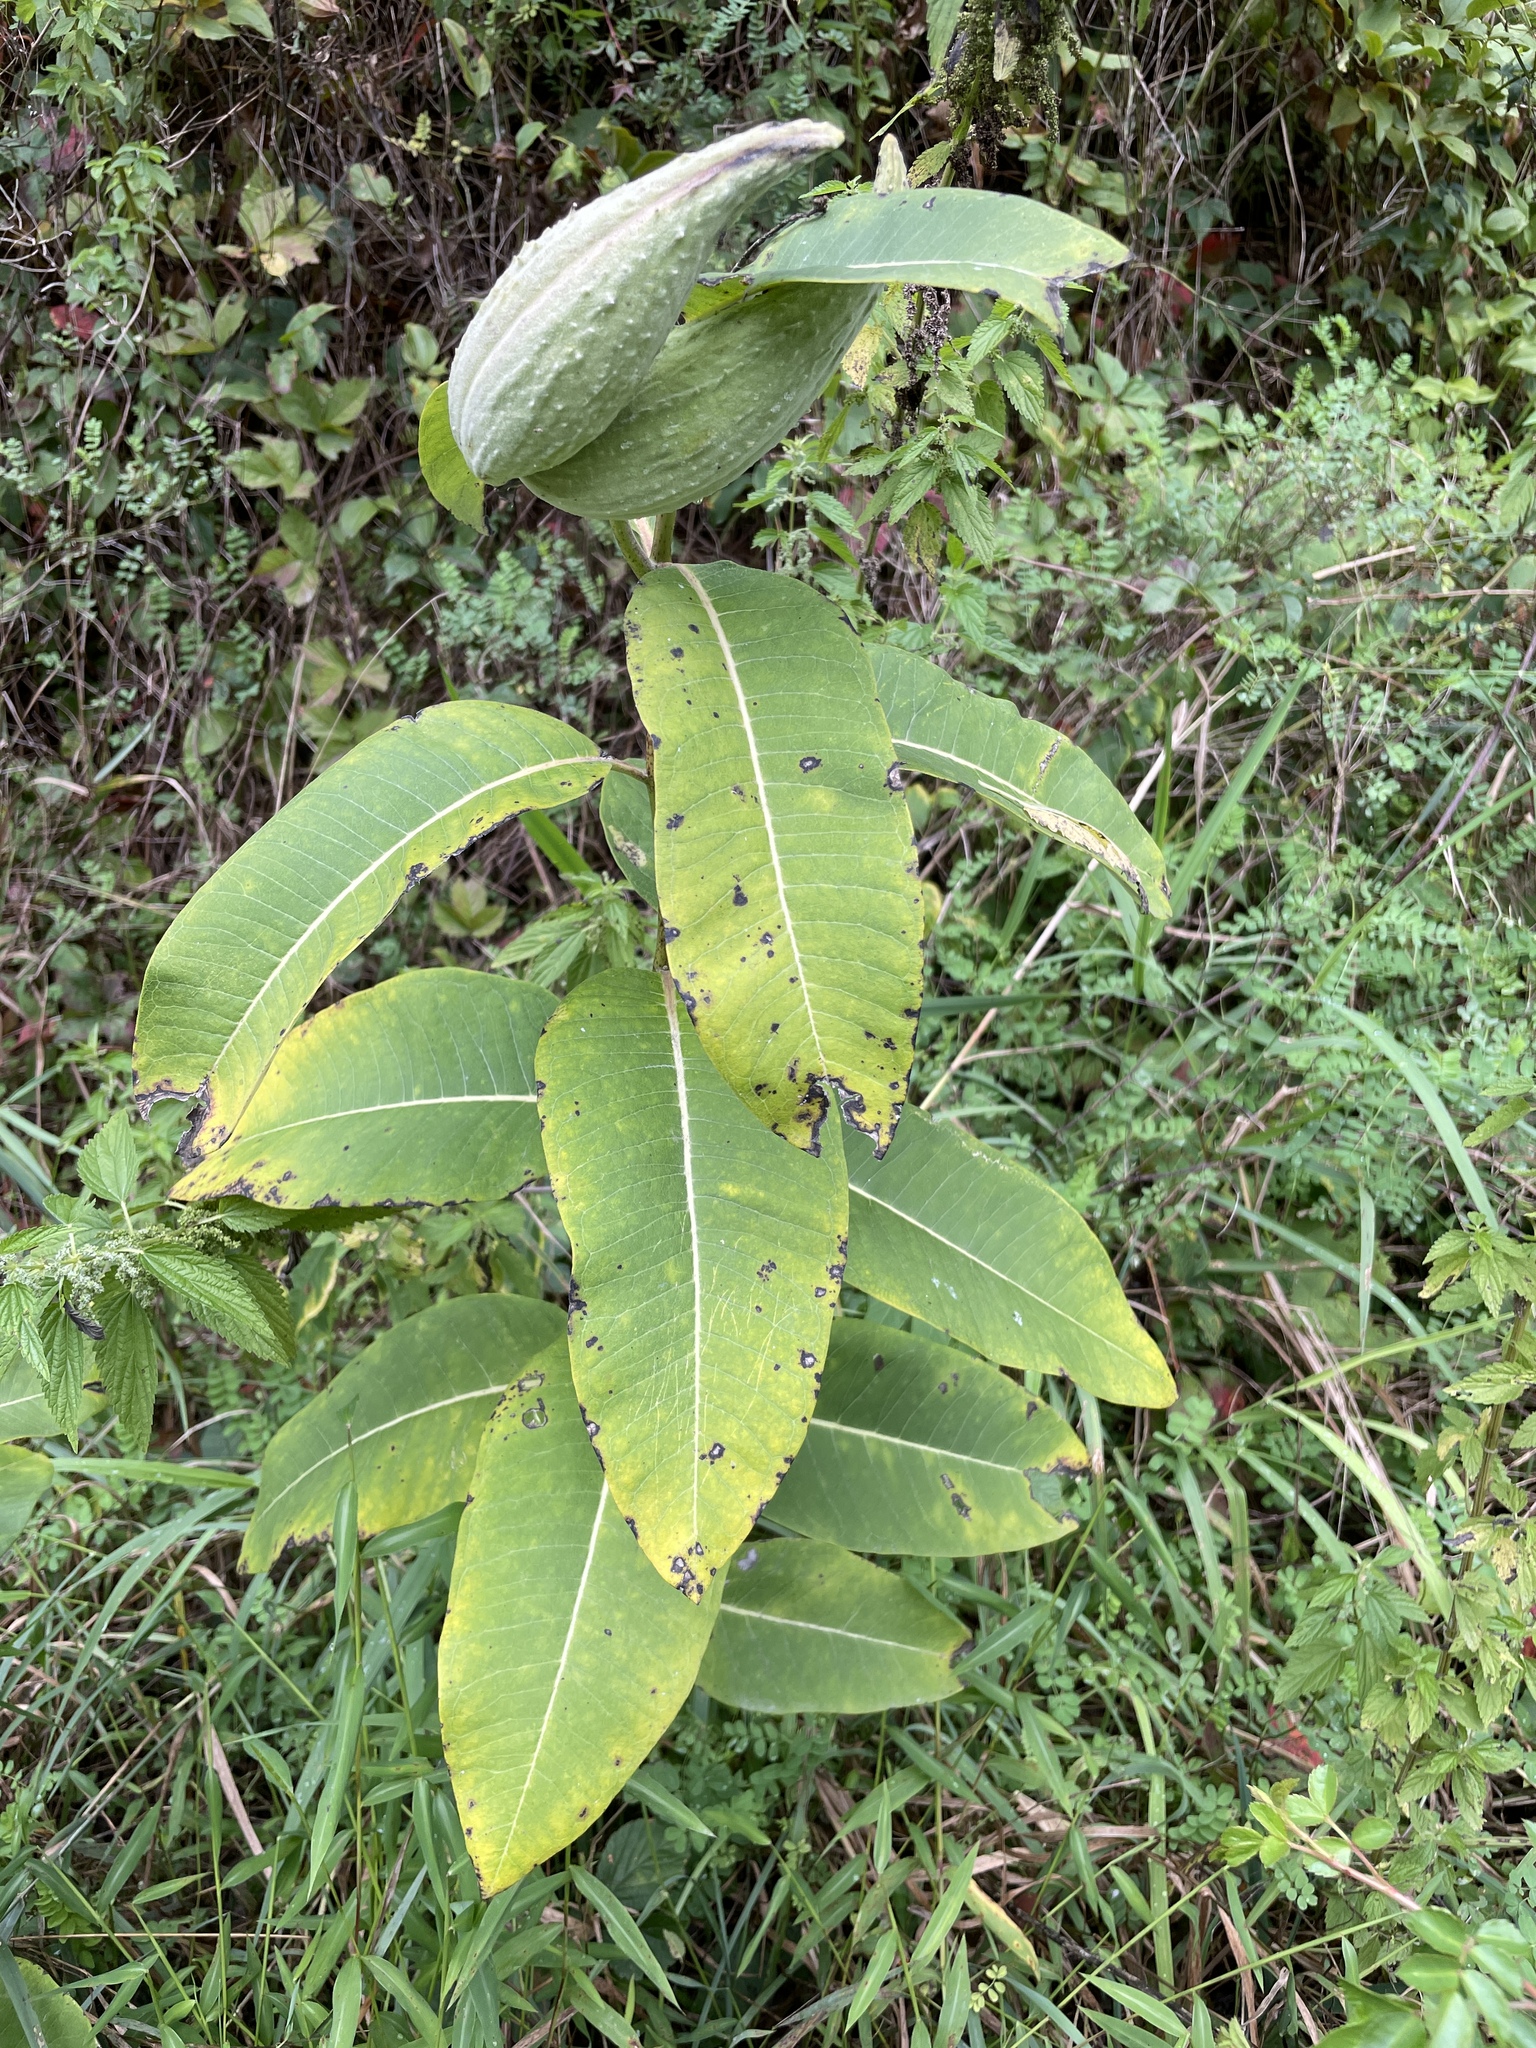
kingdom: Plantae
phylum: Tracheophyta
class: Magnoliopsida
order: Gentianales
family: Apocynaceae
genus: Asclepias
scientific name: Asclepias syriaca
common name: Common milkweed
